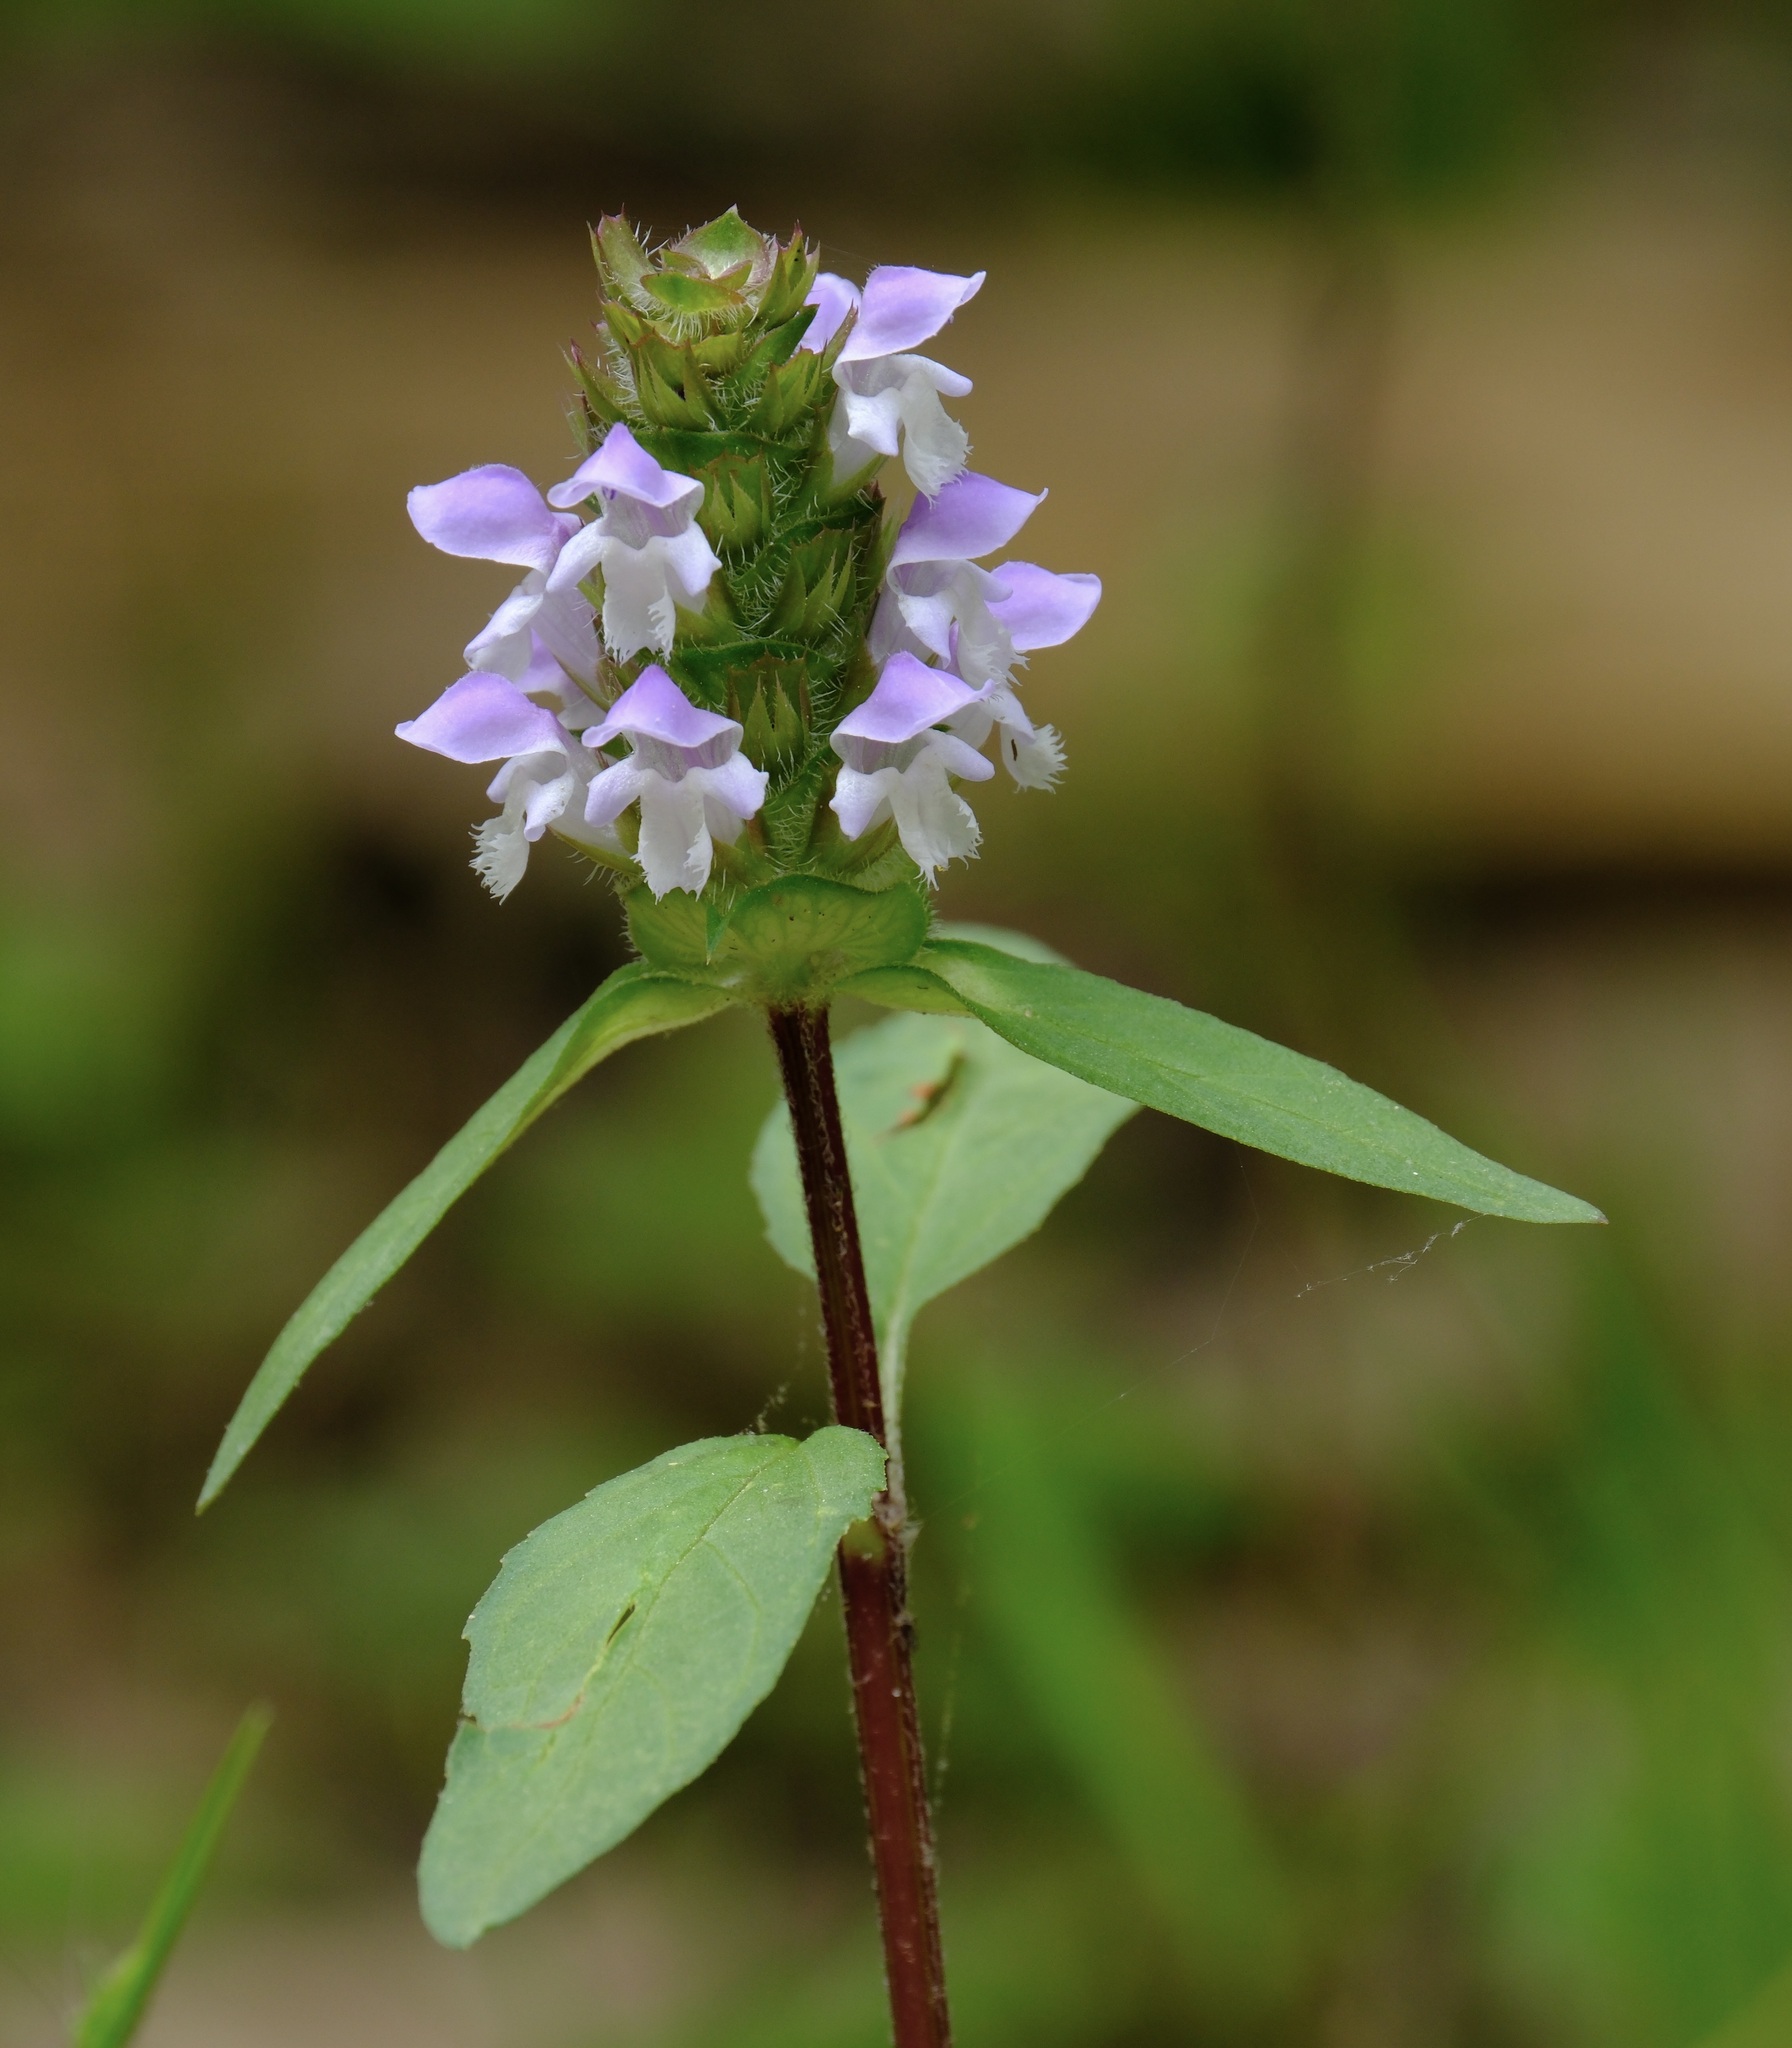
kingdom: Plantae
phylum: Tracheophyta
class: Magnoliopsida
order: Lamiales
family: Lamiaceae
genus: Prunella
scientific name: Prunella vulgaris
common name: Heal-all
